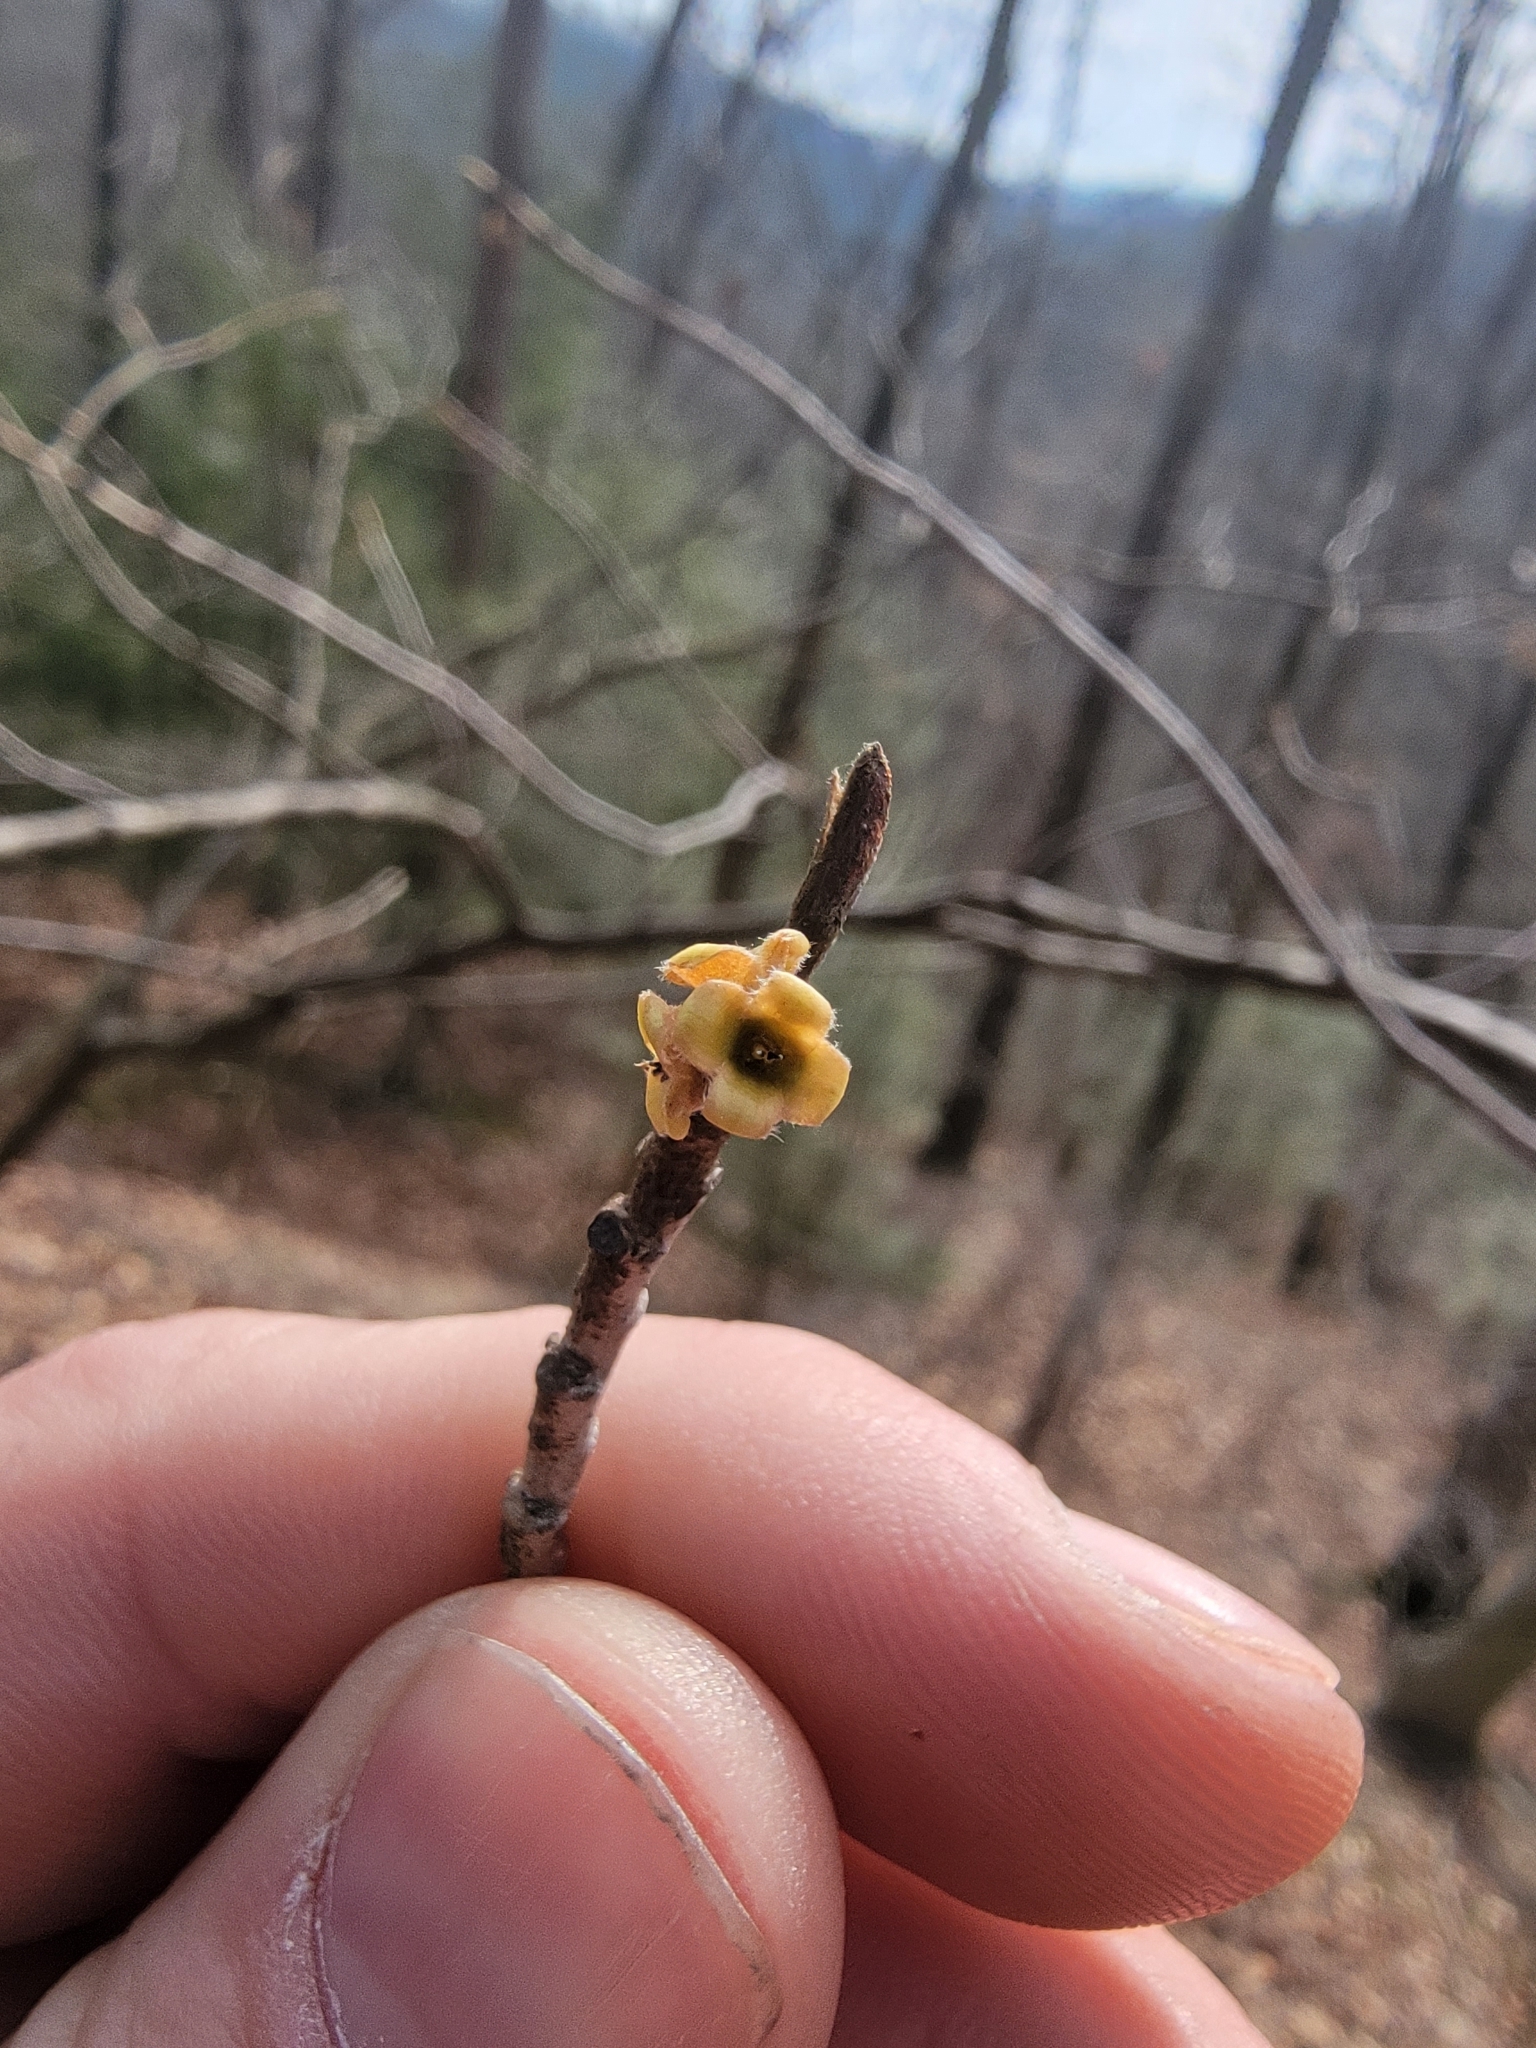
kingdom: Plantae
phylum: Tracheophyta
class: Magnoliopsida
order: Saxifragales
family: Hamamelidaceae
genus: Hamamelis
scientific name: Hamamelis virginiana
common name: Witch-hazel
